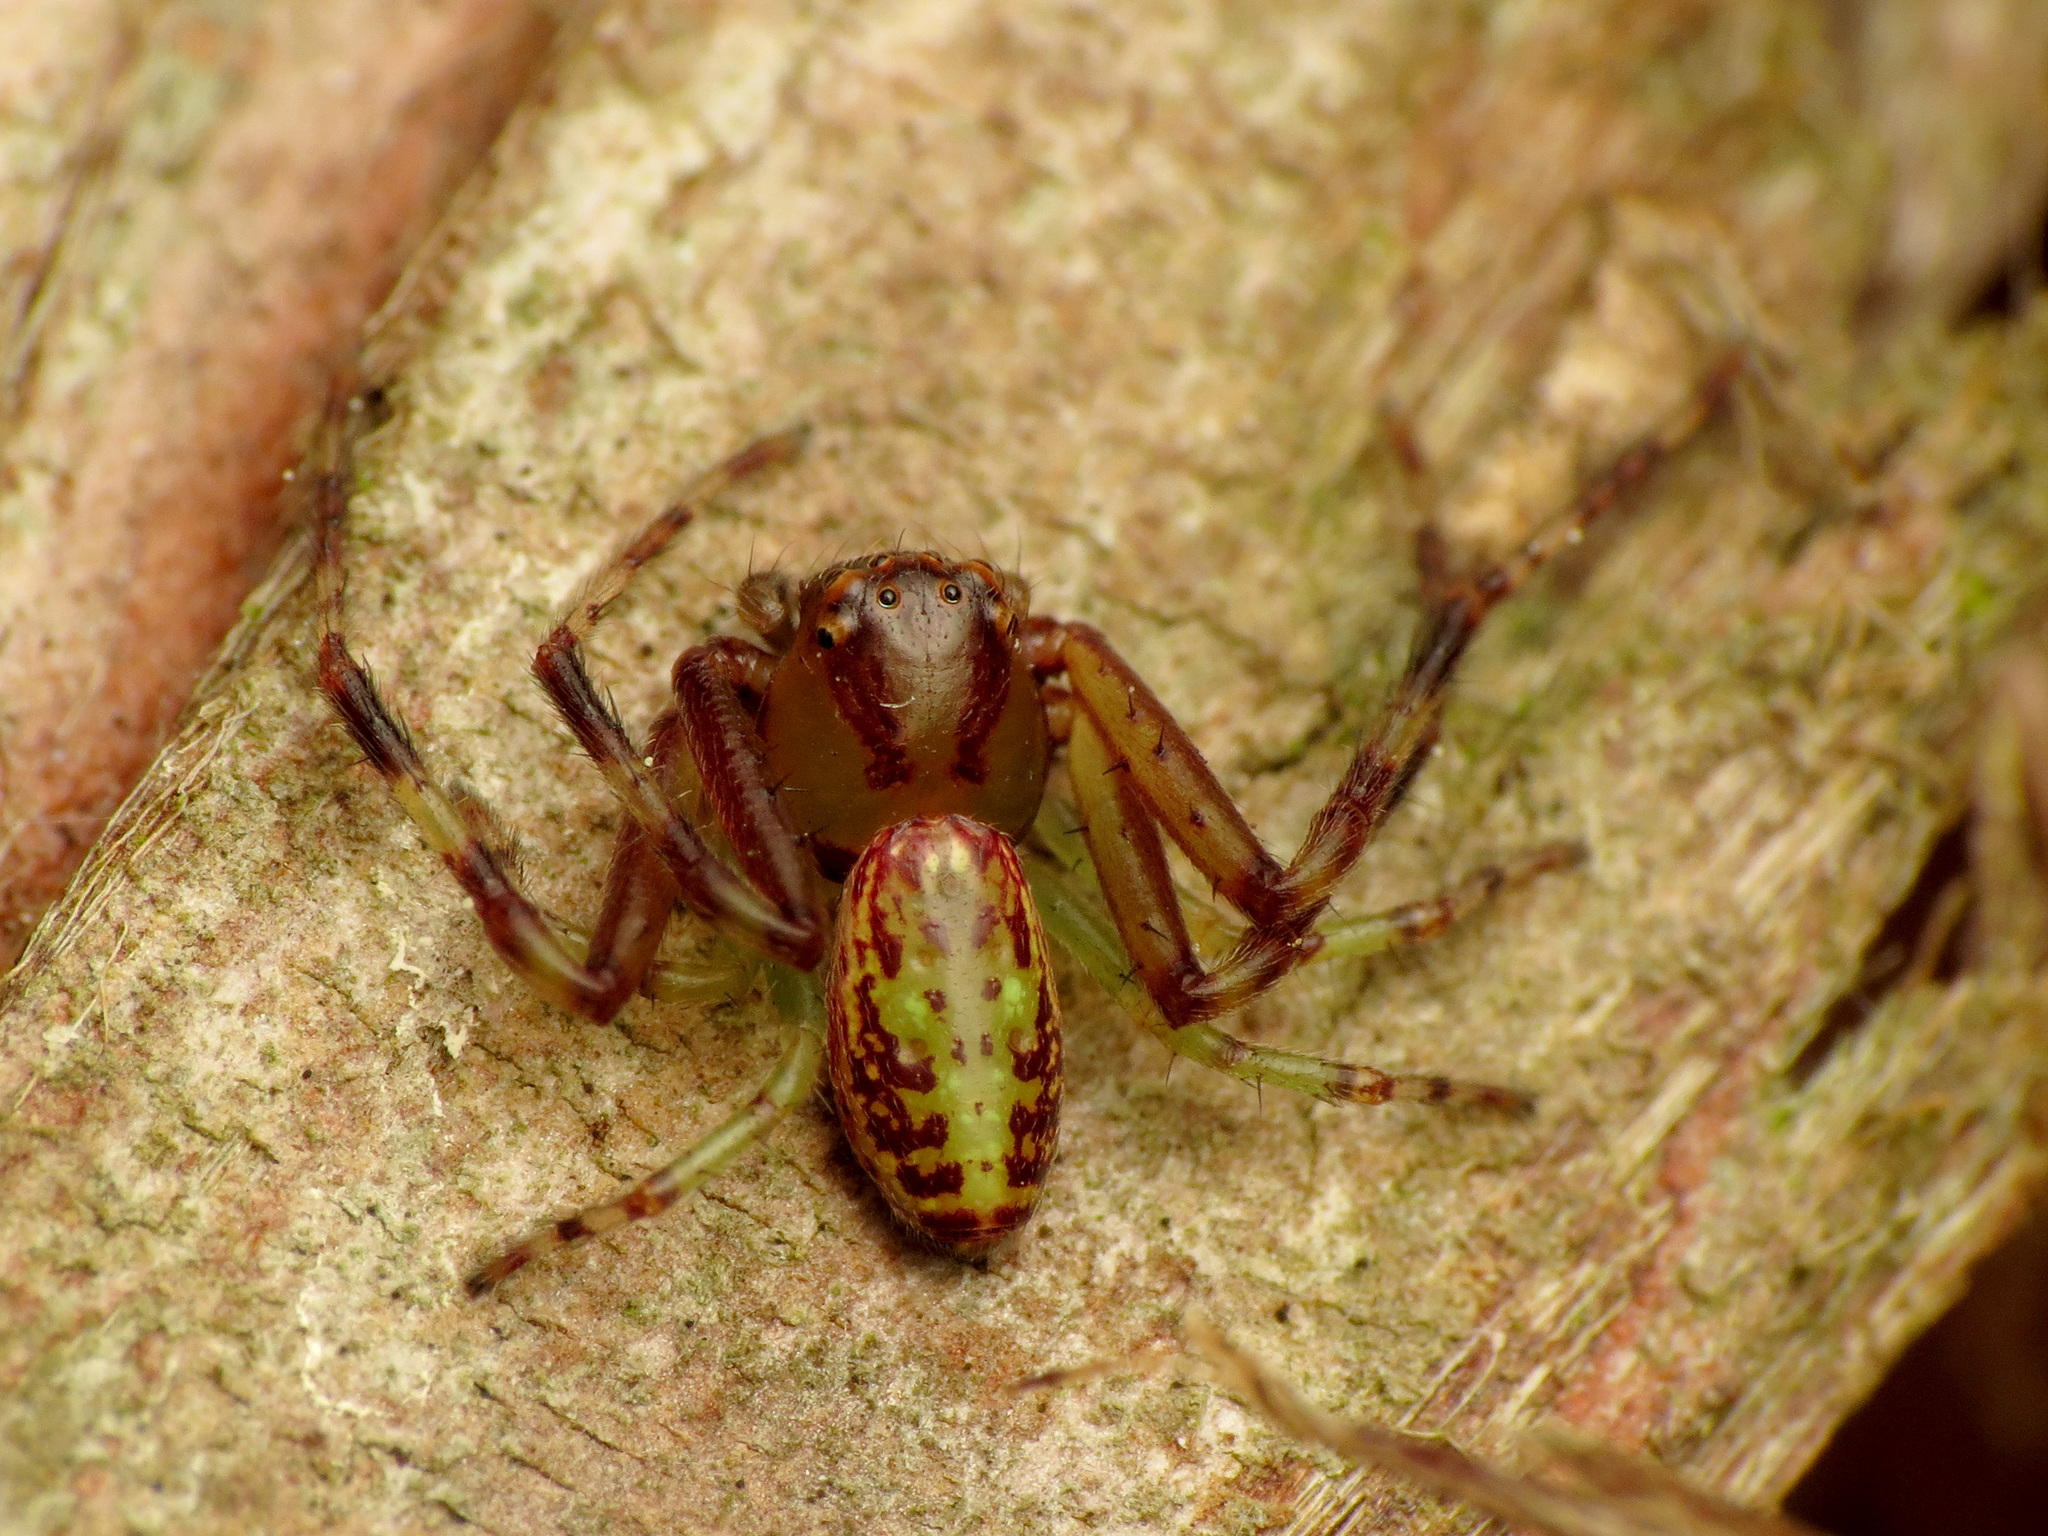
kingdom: Animalia
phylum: Arthropoda
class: Arachnida
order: Araneae
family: Thomisidae
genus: Diaea
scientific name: Diaea ambara
